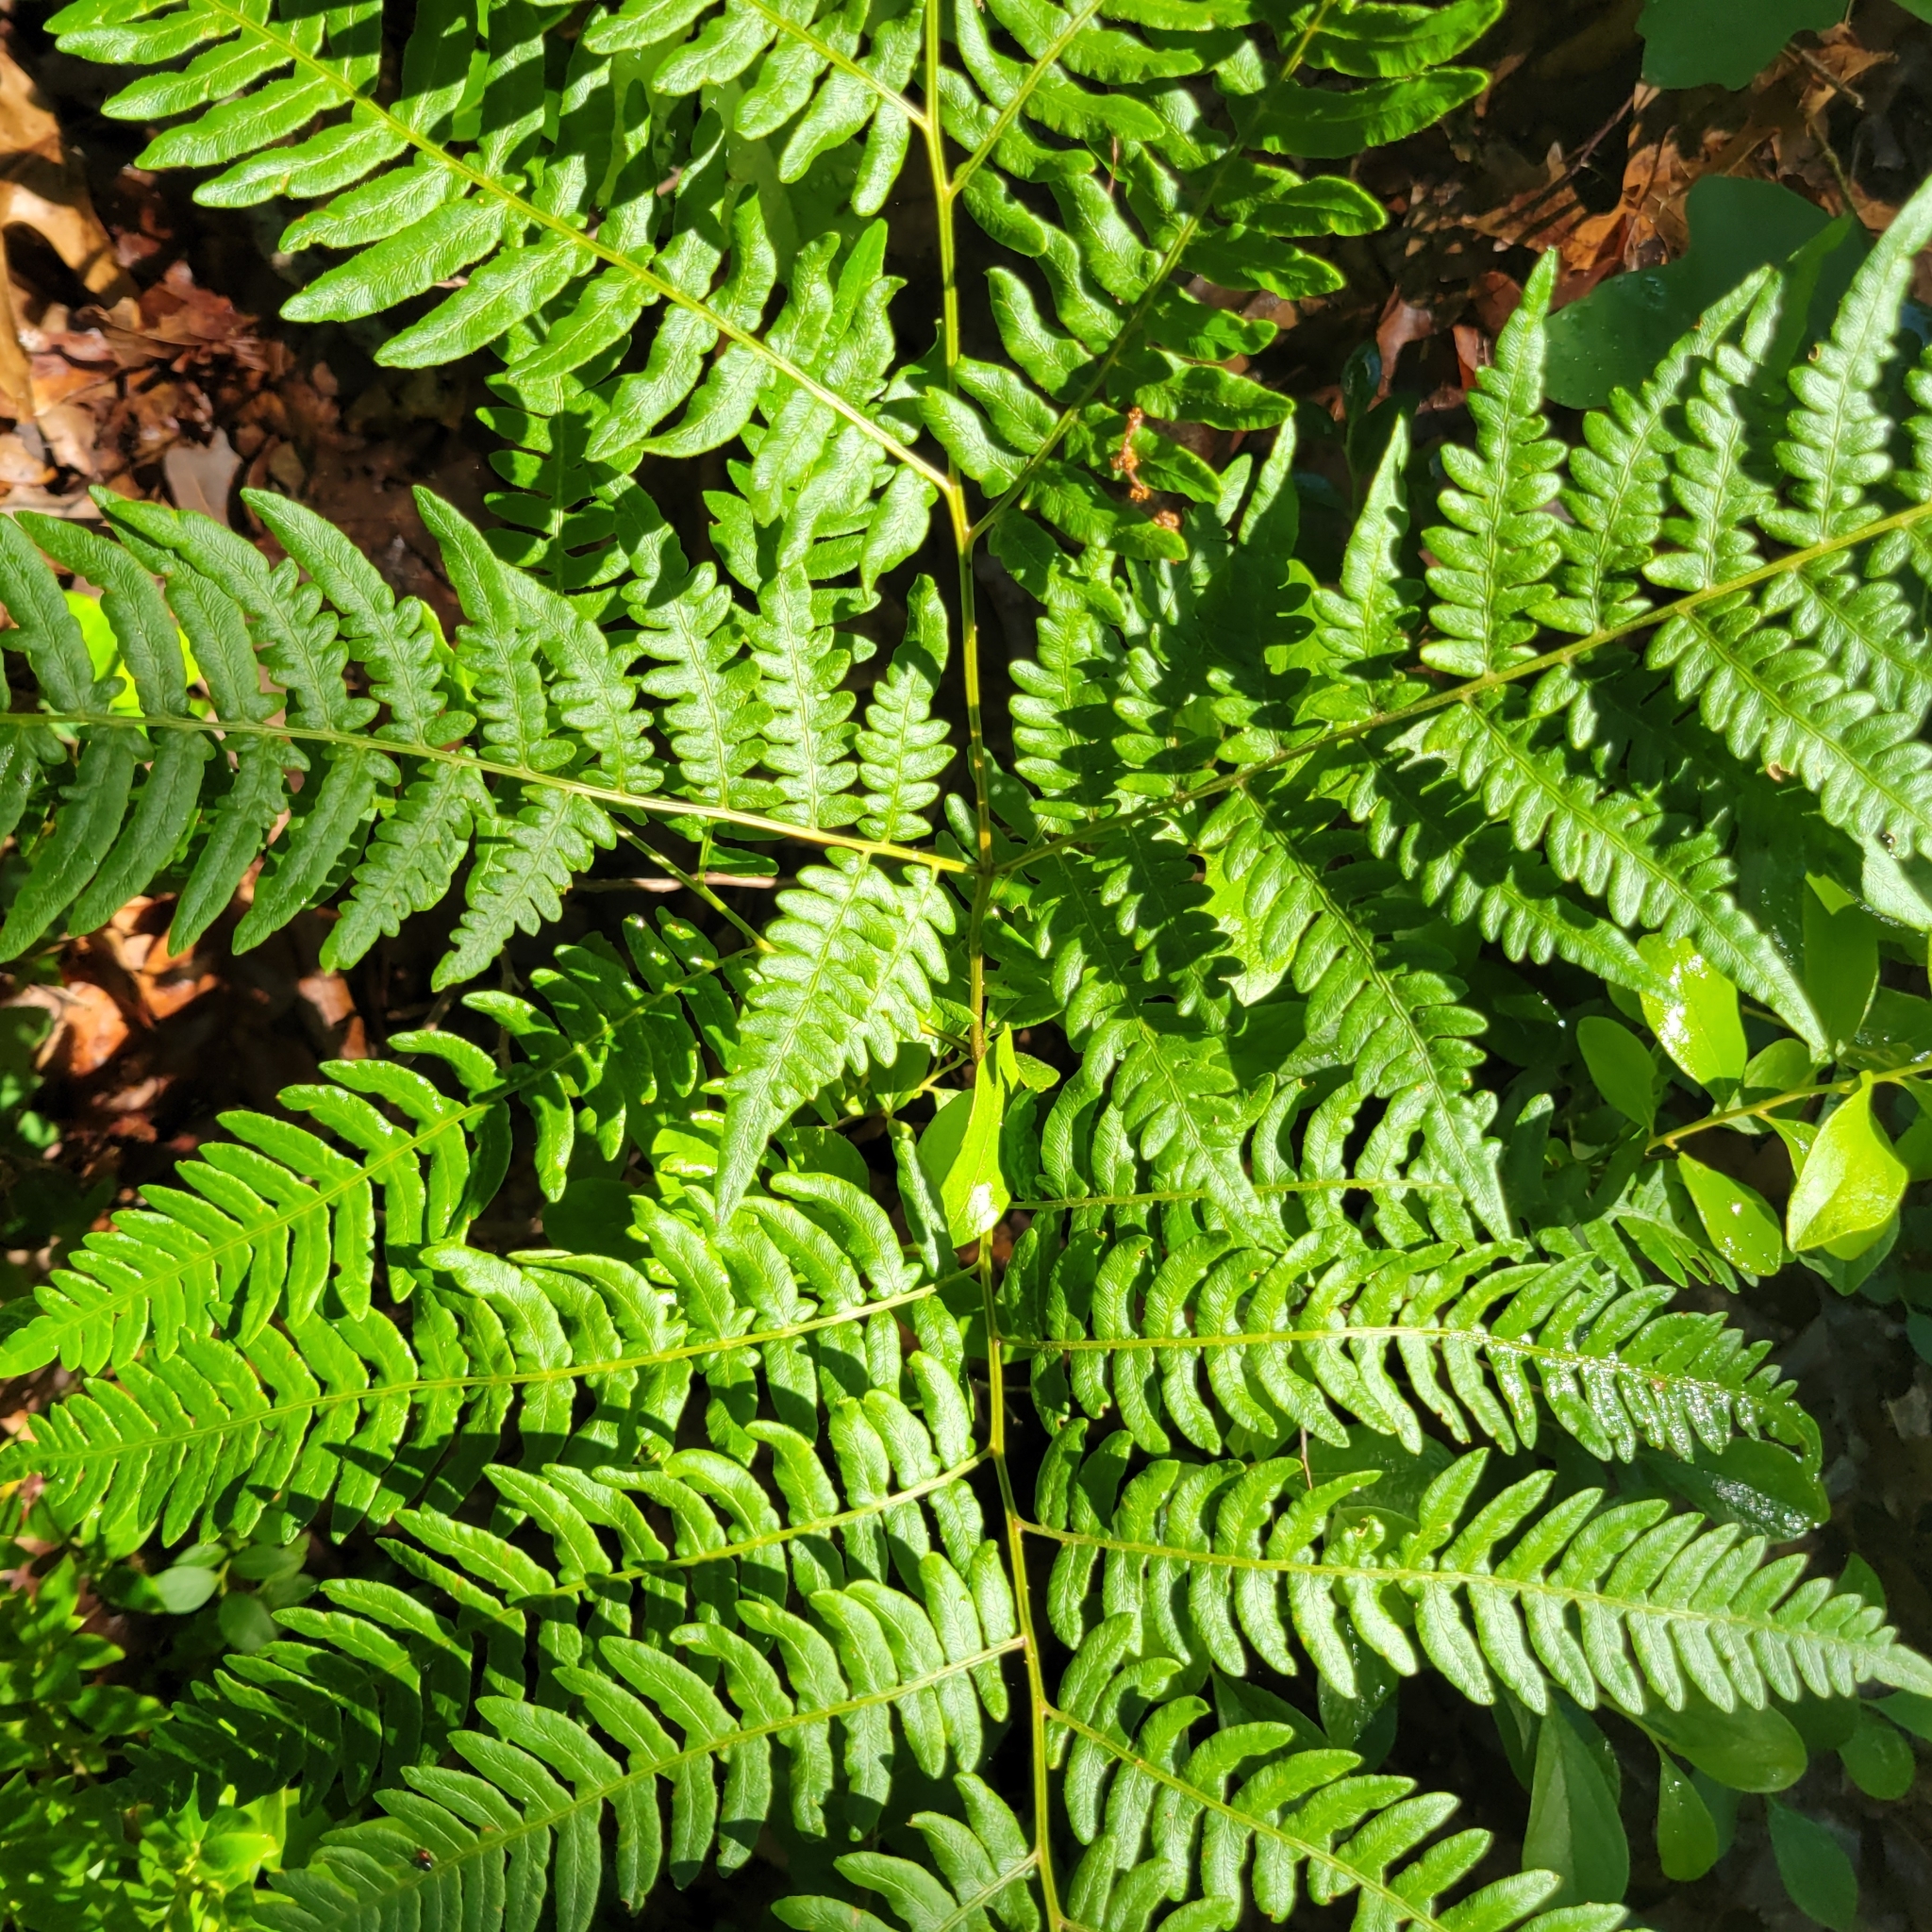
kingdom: Plantae
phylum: Tracheophyta
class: Polypodiopsida
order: Polypodiales
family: Dennstaedtiaceae
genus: Pteridium
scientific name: Pteridium aquilinum
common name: Bracken
